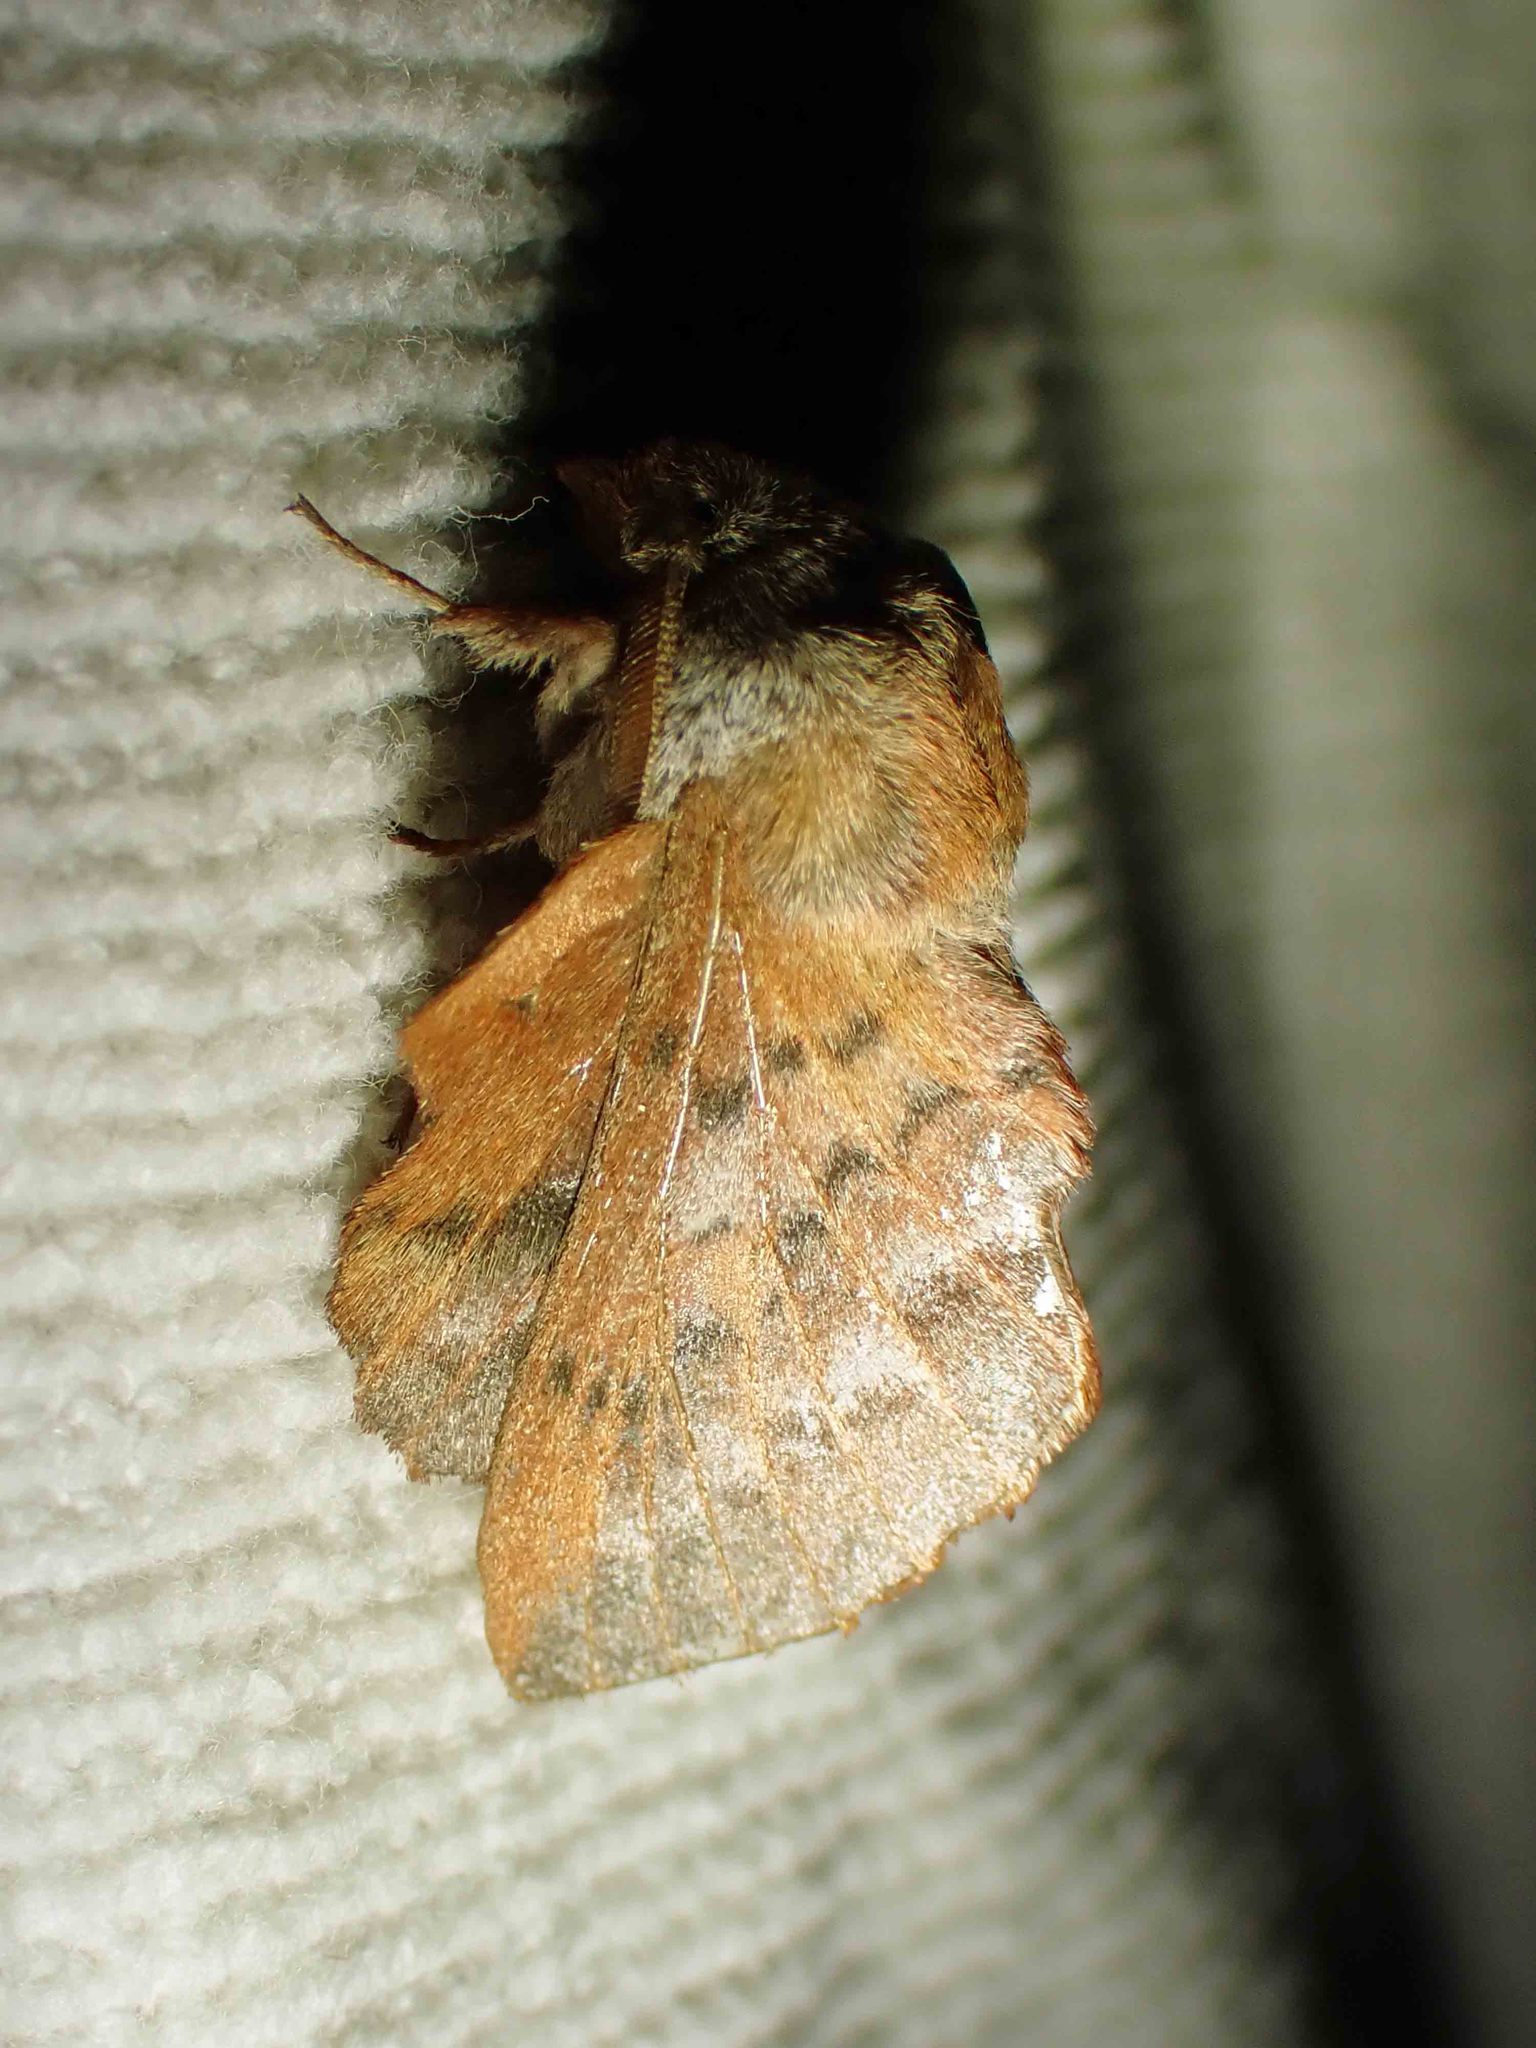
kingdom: Animalia
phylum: Arthropoda
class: Insecta
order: Lepidoptera
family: Lasiocampidae
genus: Phyllodesma
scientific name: Phyllodesma americana
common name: American lappet moth
